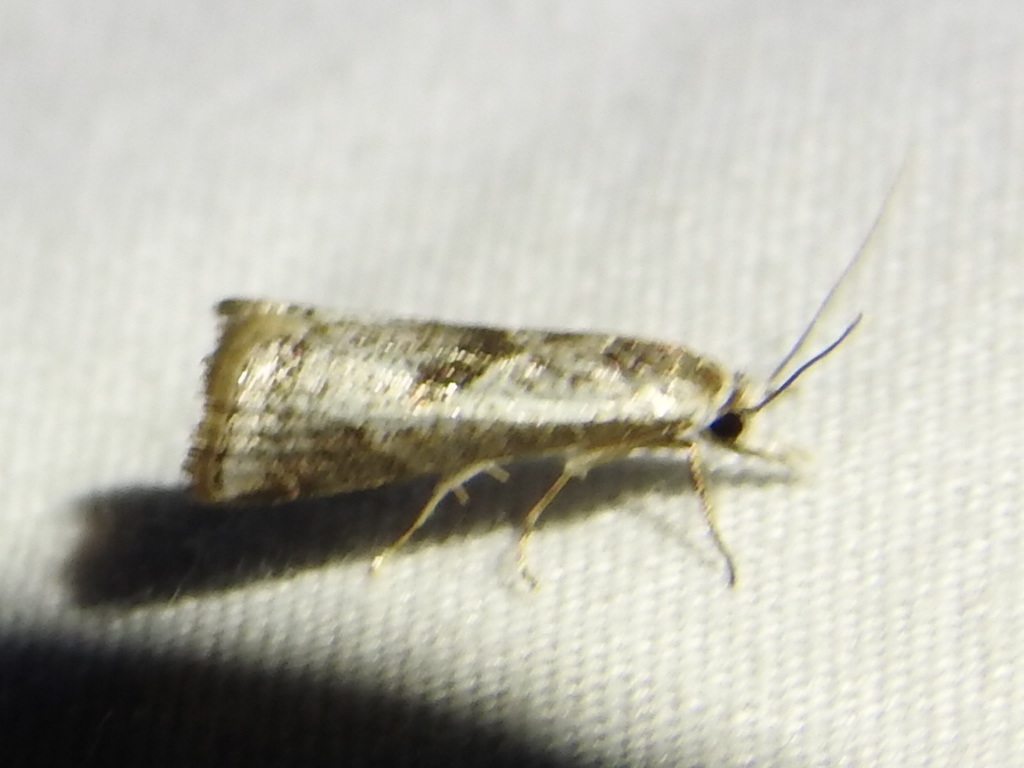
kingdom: Animalia
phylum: Arthropoda
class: Insecta
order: Lepidoptera
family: Crambidae
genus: Microcrambus
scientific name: Microcrambus elegans
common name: Elegant grass-veneer
